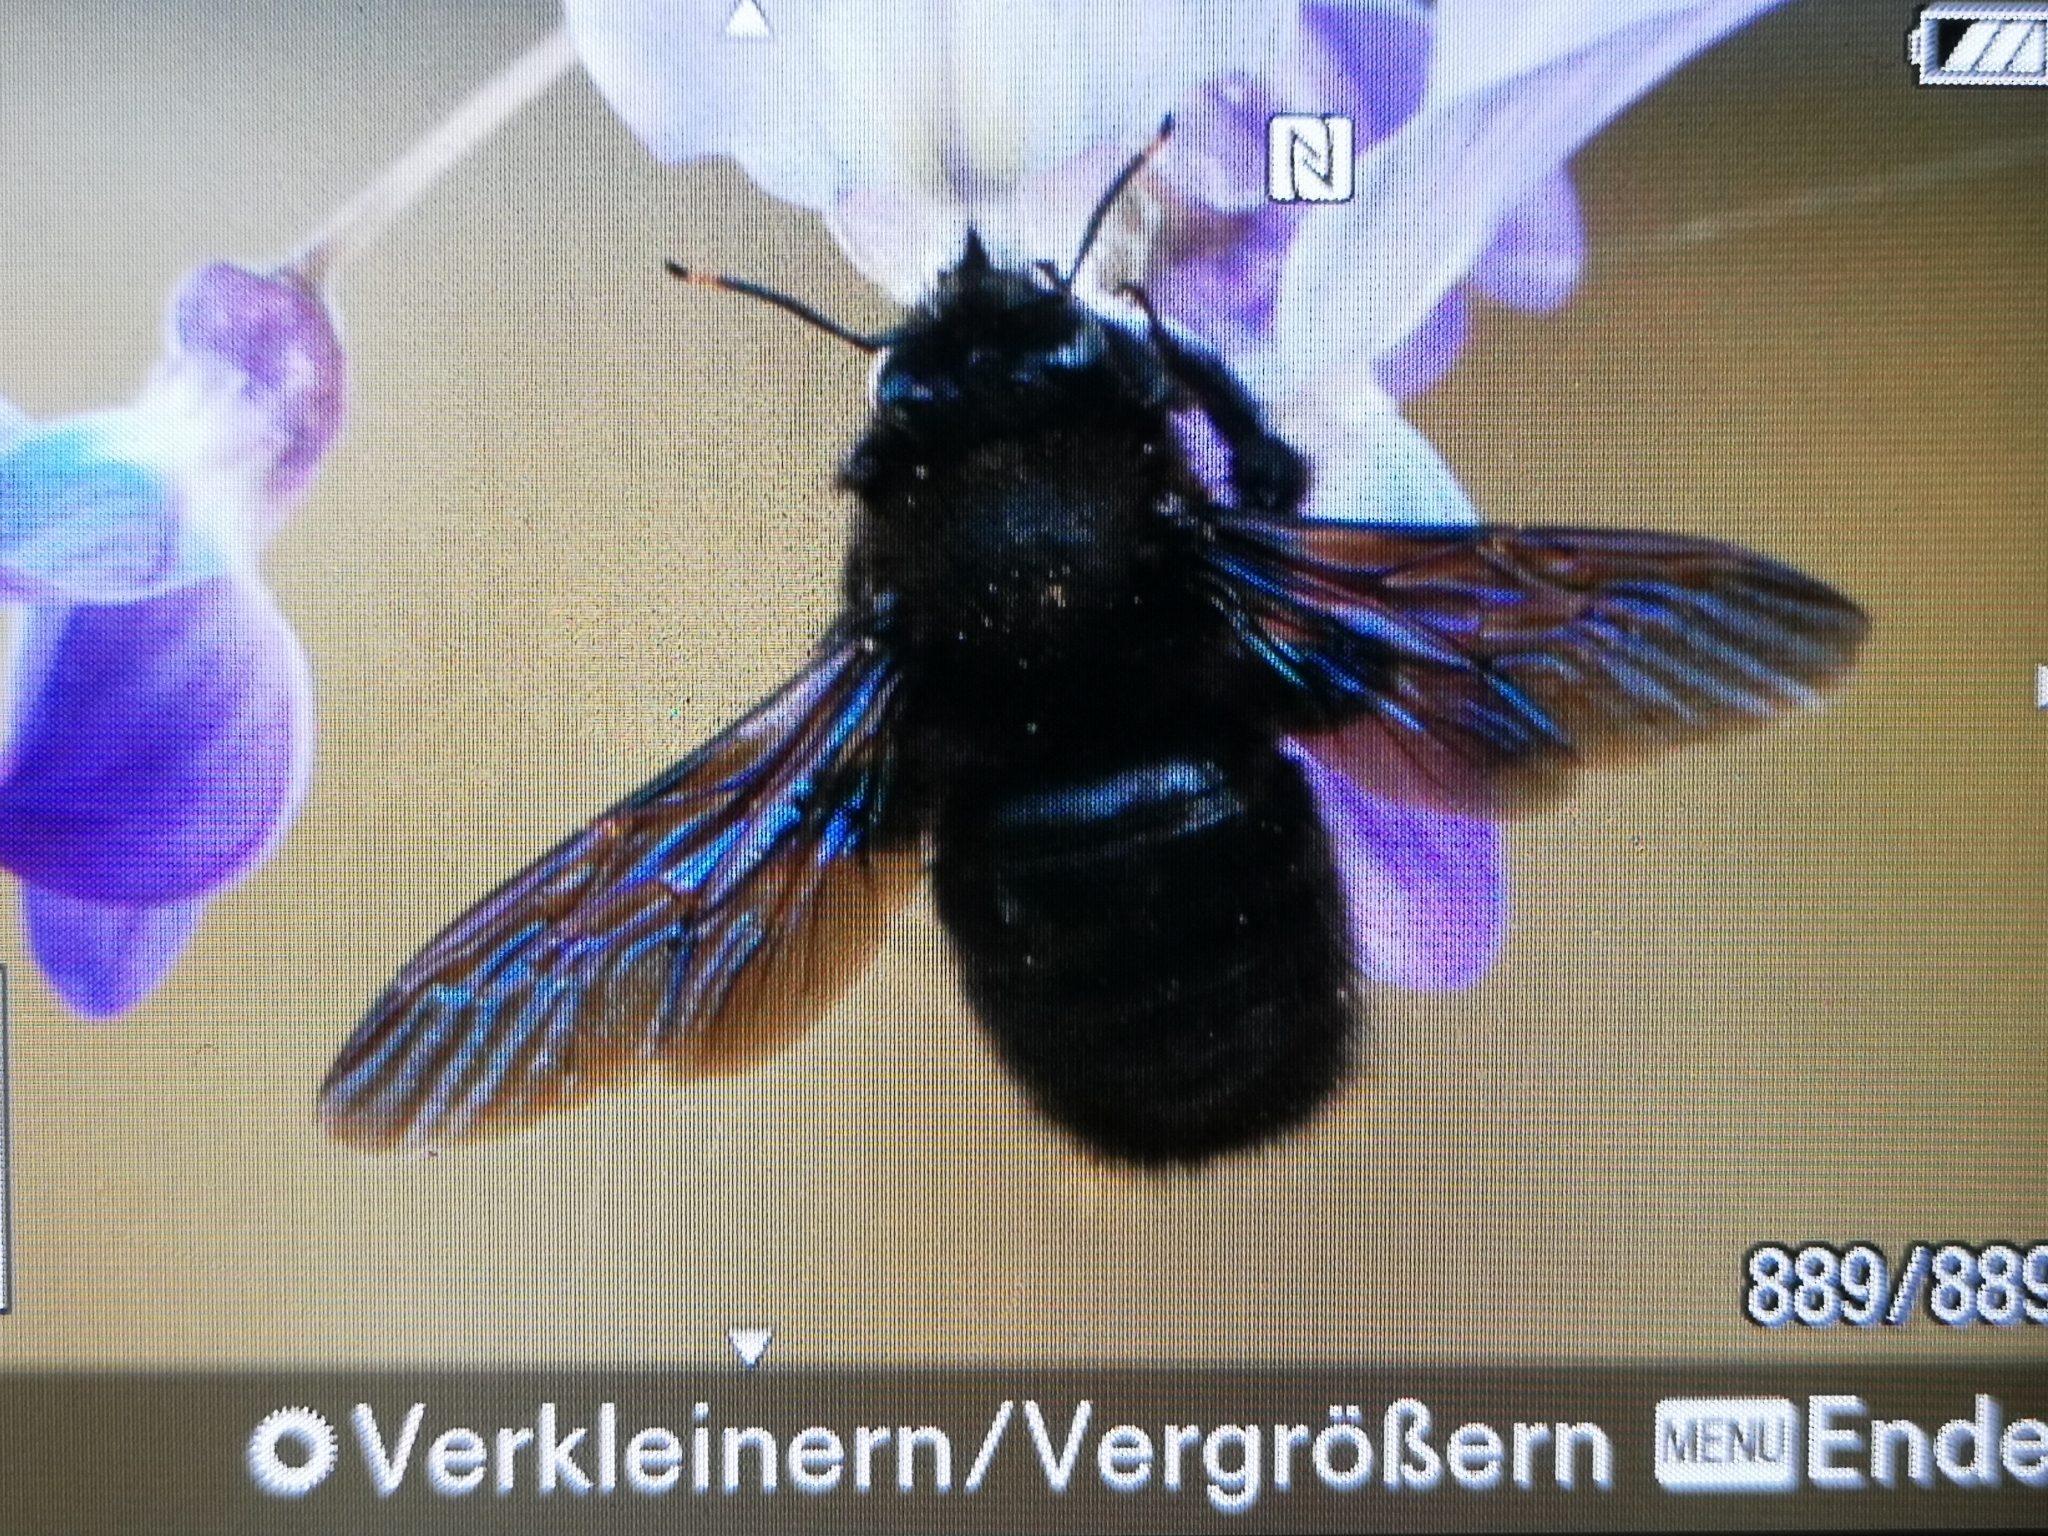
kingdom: Animalia
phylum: Arthropoda
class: Insecta
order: Hymenoptera
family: Apidae
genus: Xylocopa
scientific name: Xylocopa violacea
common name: Violet carpenter bee
